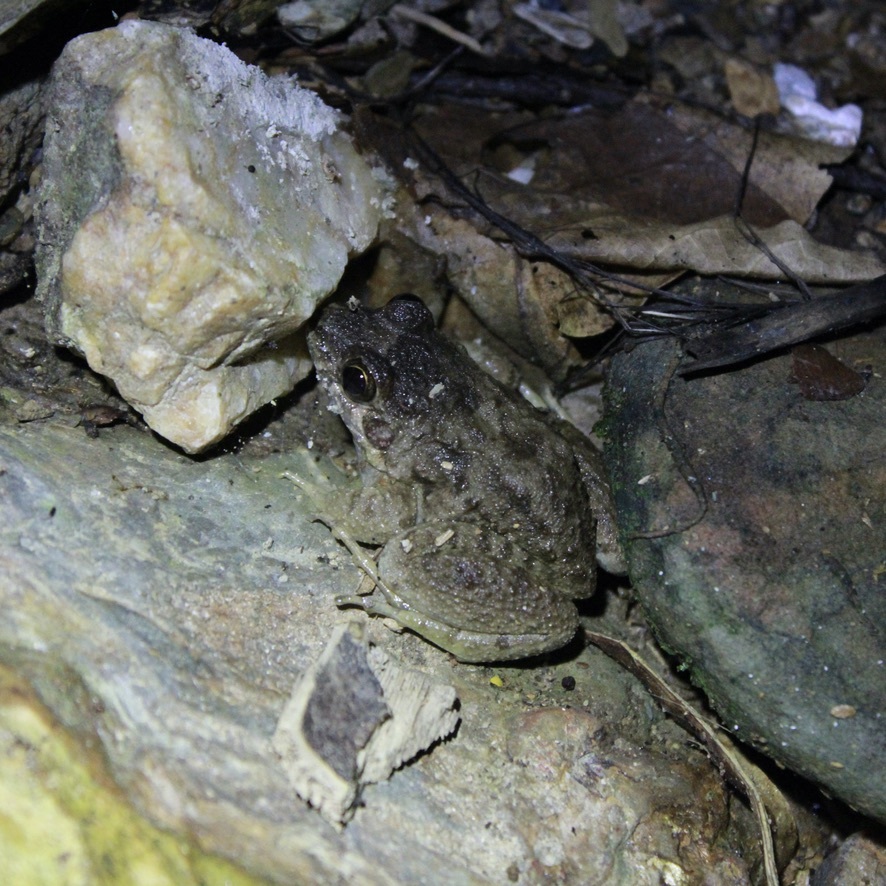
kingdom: Animalia
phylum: Chordata
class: Amphibia
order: Anura
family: Leptodactylidae
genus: Leptodactylus
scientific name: Leptodactylus validus
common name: Smooth-skinned ditch frog
